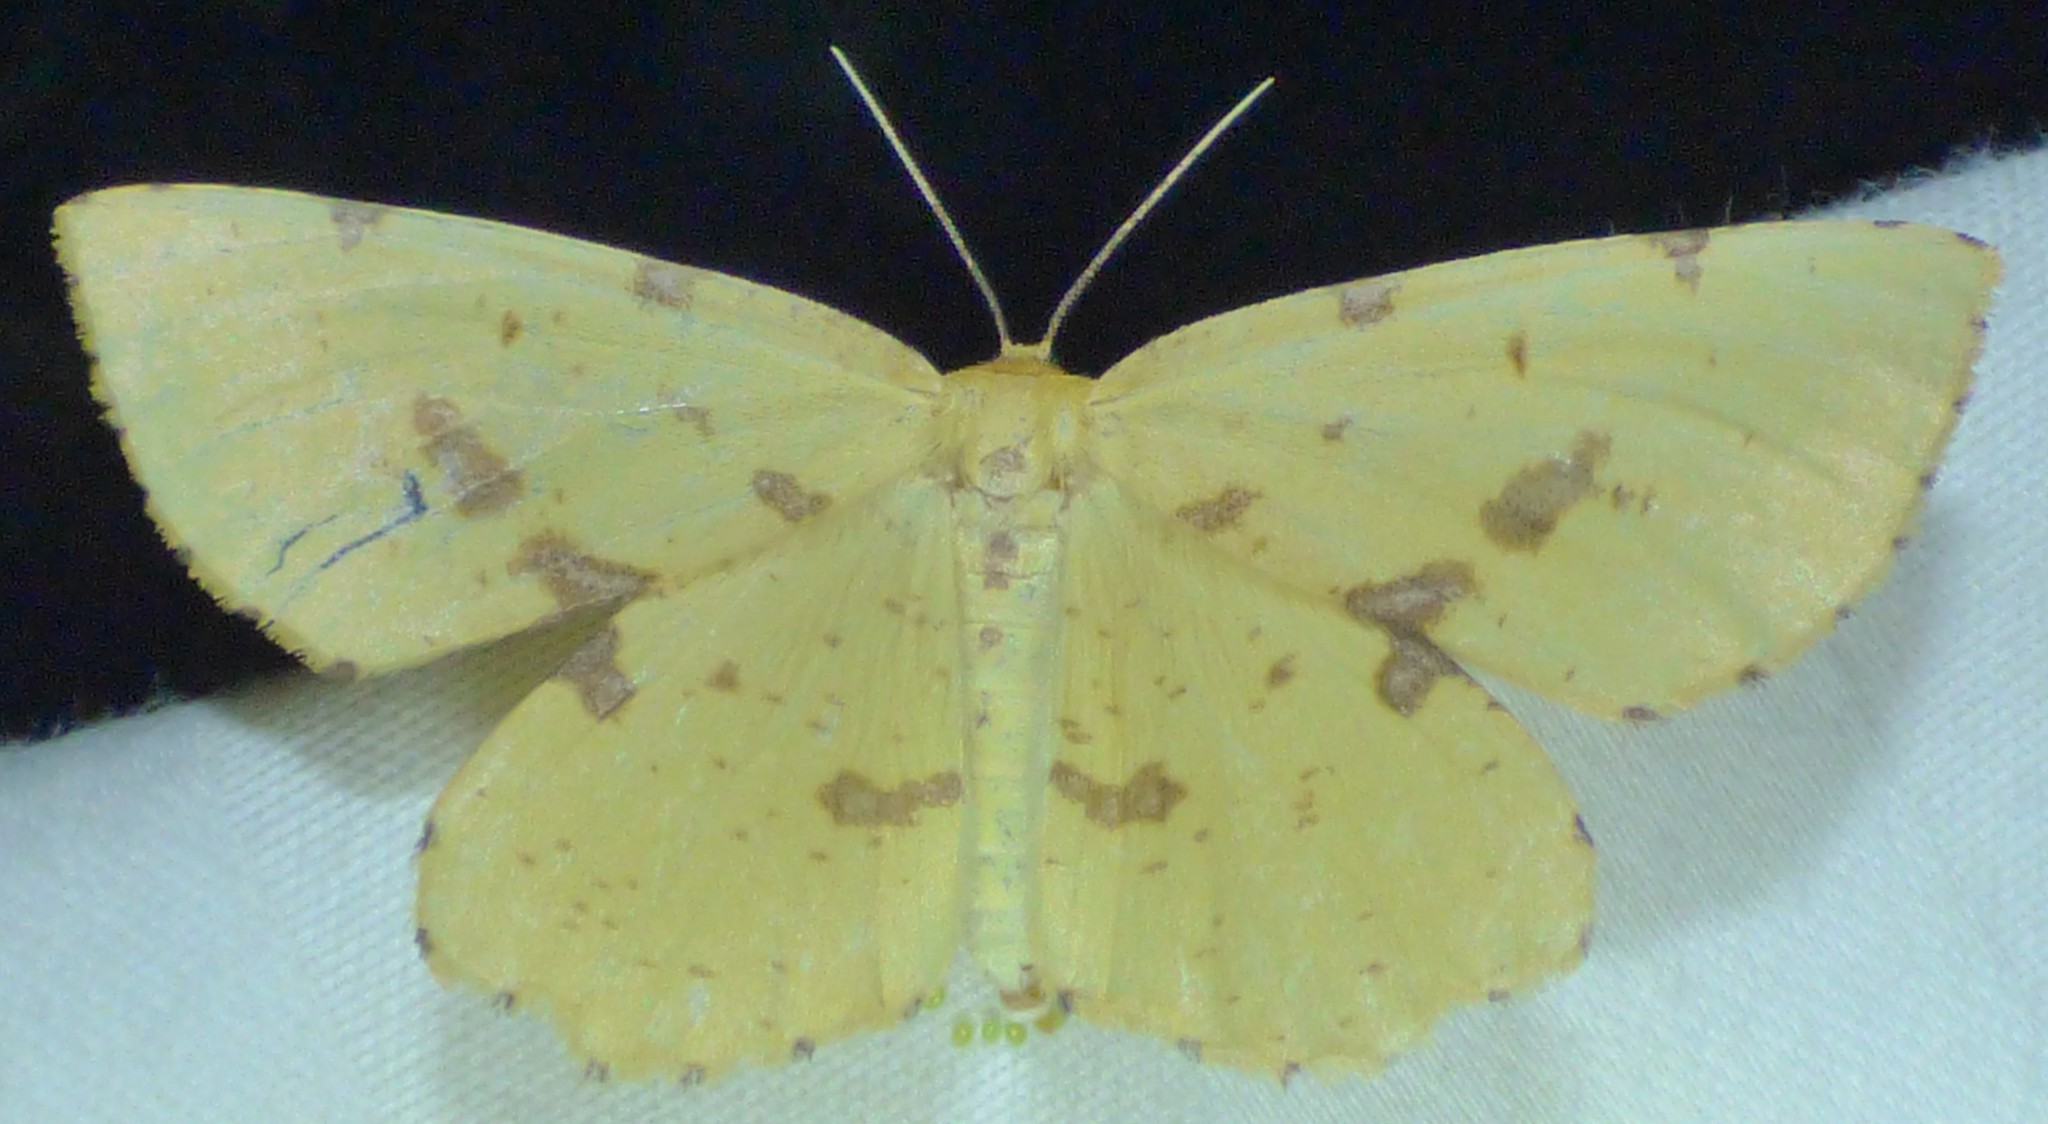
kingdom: Animalia
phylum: Arthropoda
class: Insecta
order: Lepidoptera
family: Geometridae
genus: Xanthotype
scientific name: Xanthotype
